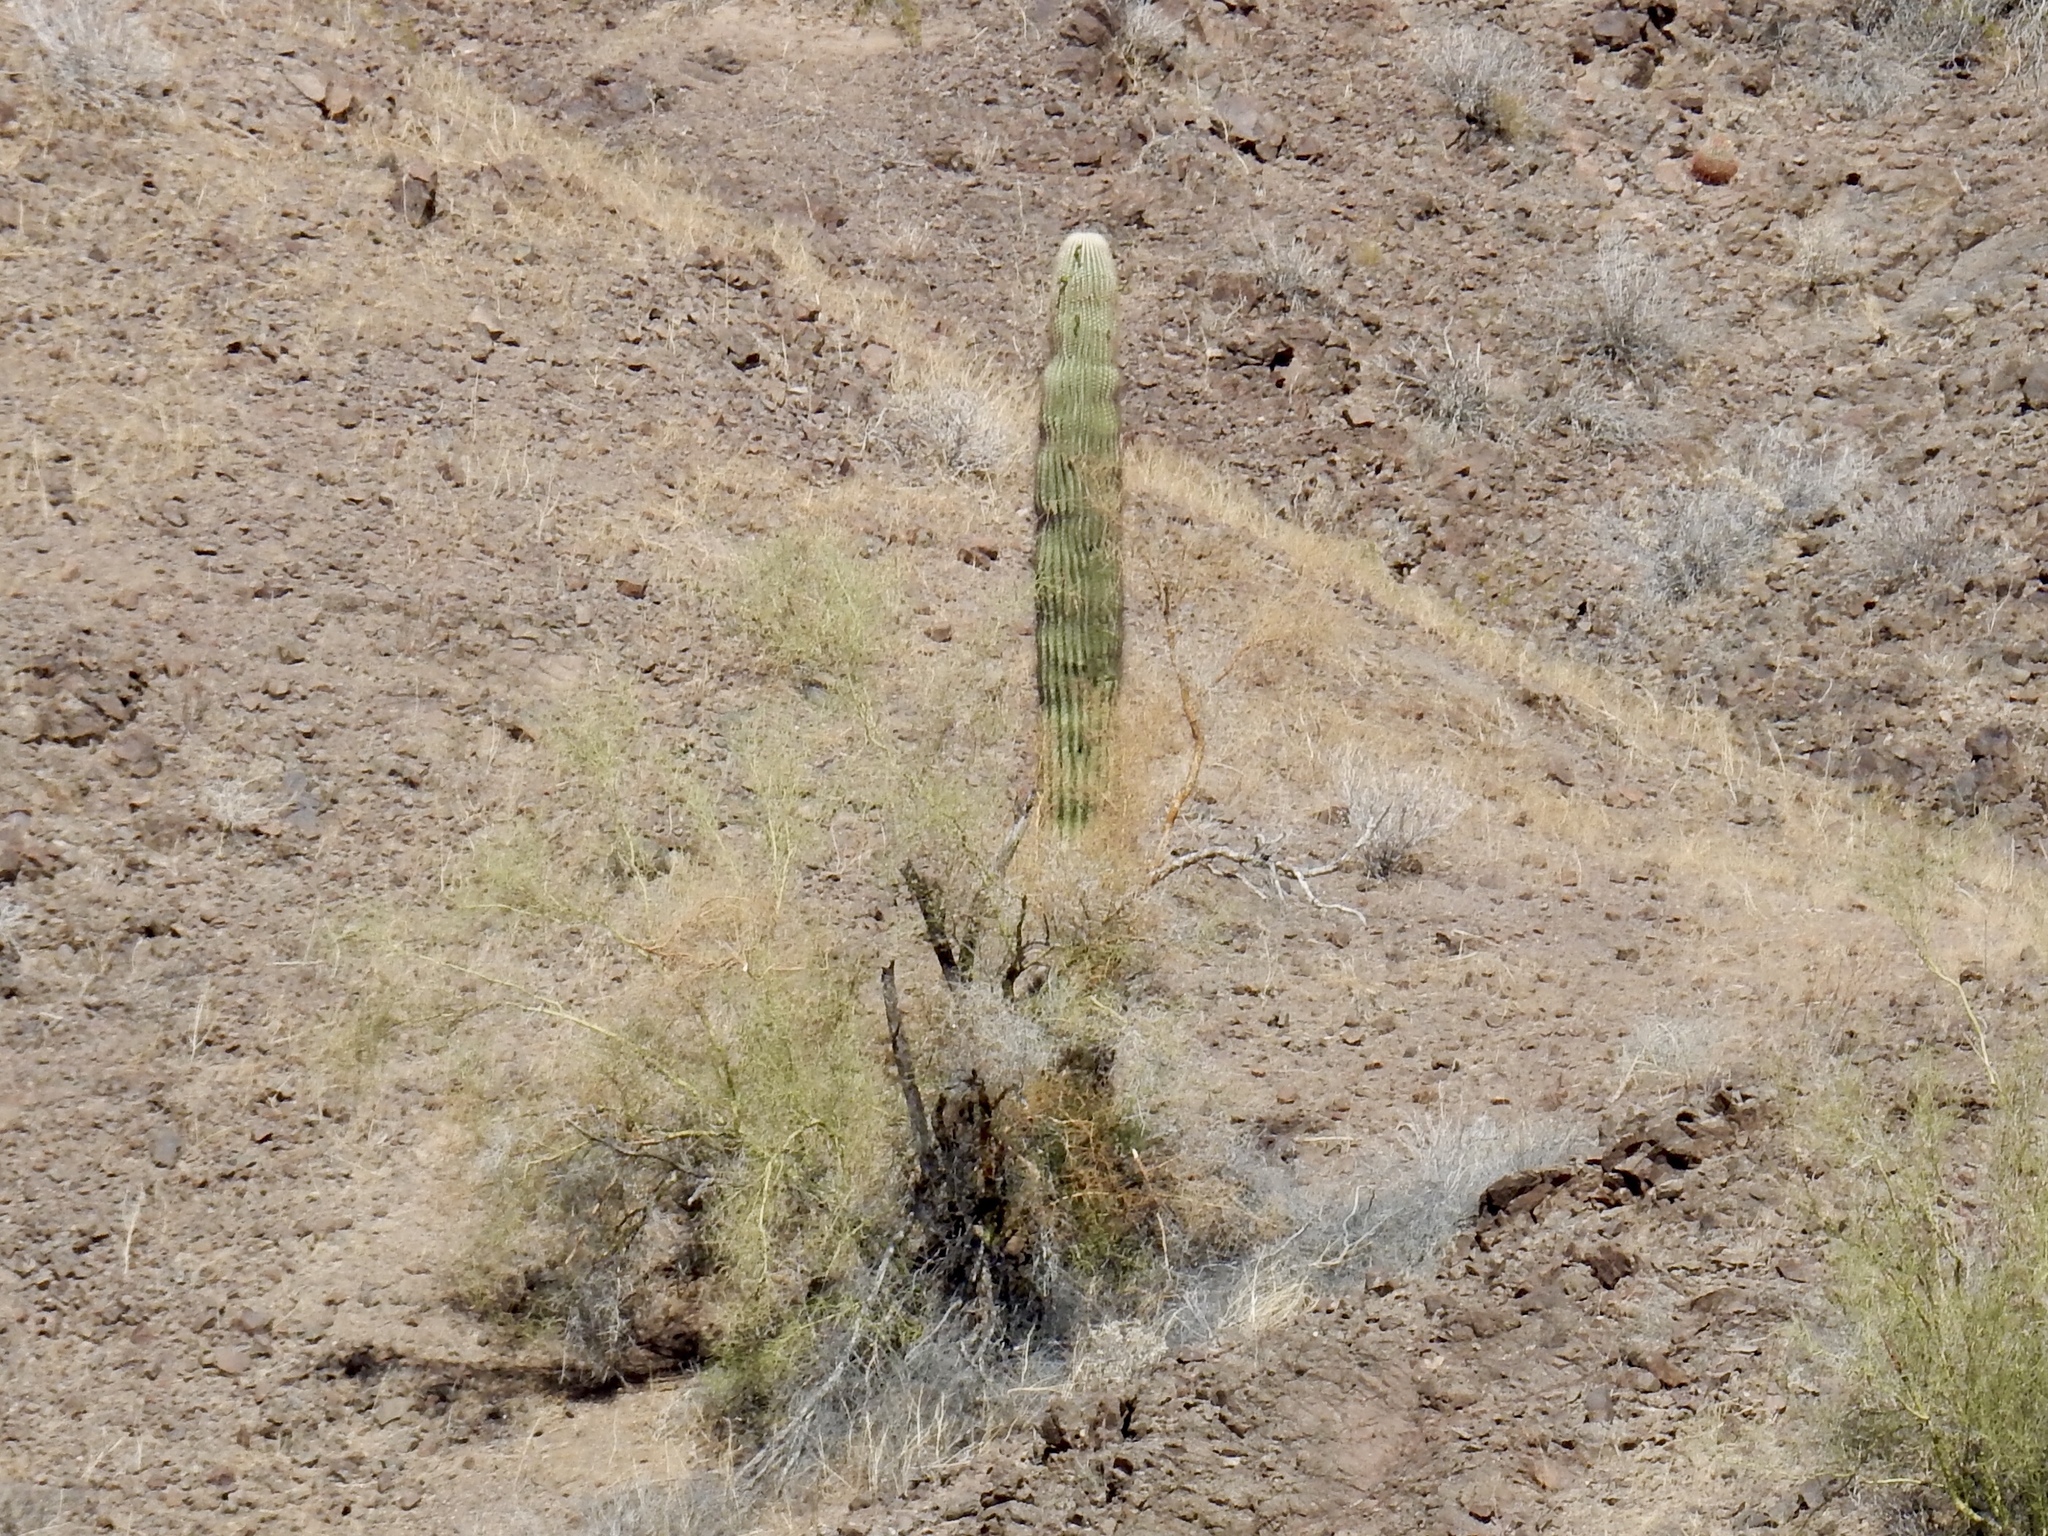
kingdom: Plantae
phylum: Tracheophyta
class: Magnoliopsida
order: Caryophyllales
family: Cactaceae
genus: Carnegiea
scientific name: Carnegiea gigantea
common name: Saguaro
